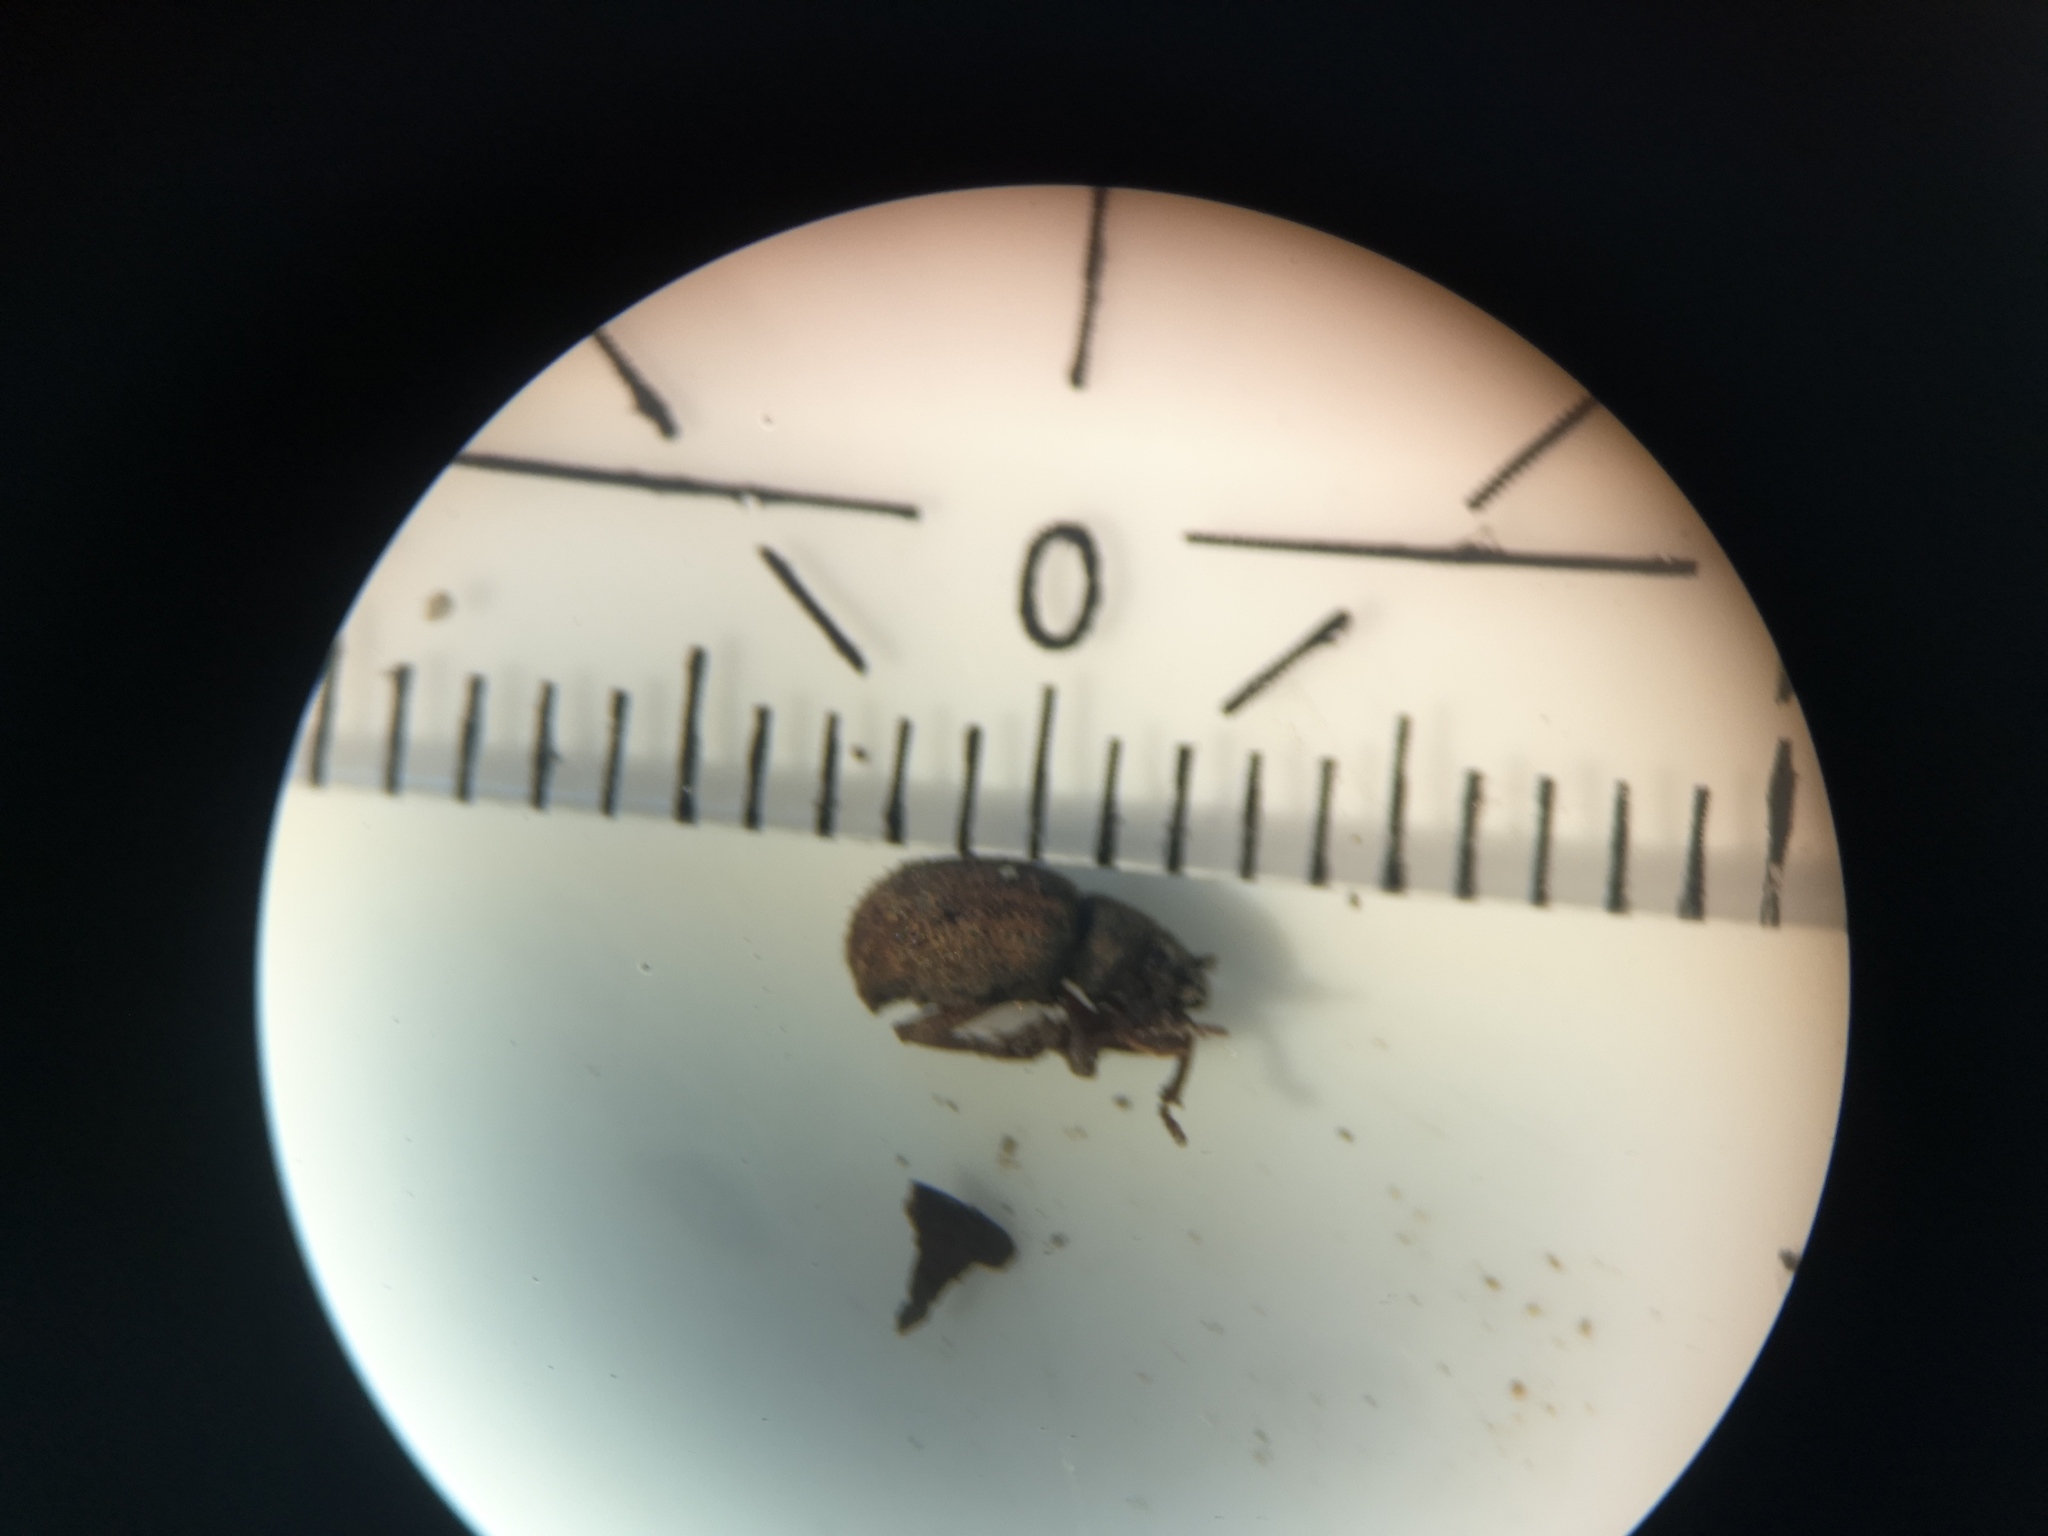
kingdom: Animalia
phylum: Arthropoda
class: Insecta
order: Coleoptera
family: Curculionidae
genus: Strophosoma
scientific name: Strophosoma melanogrammum
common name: Weevil
